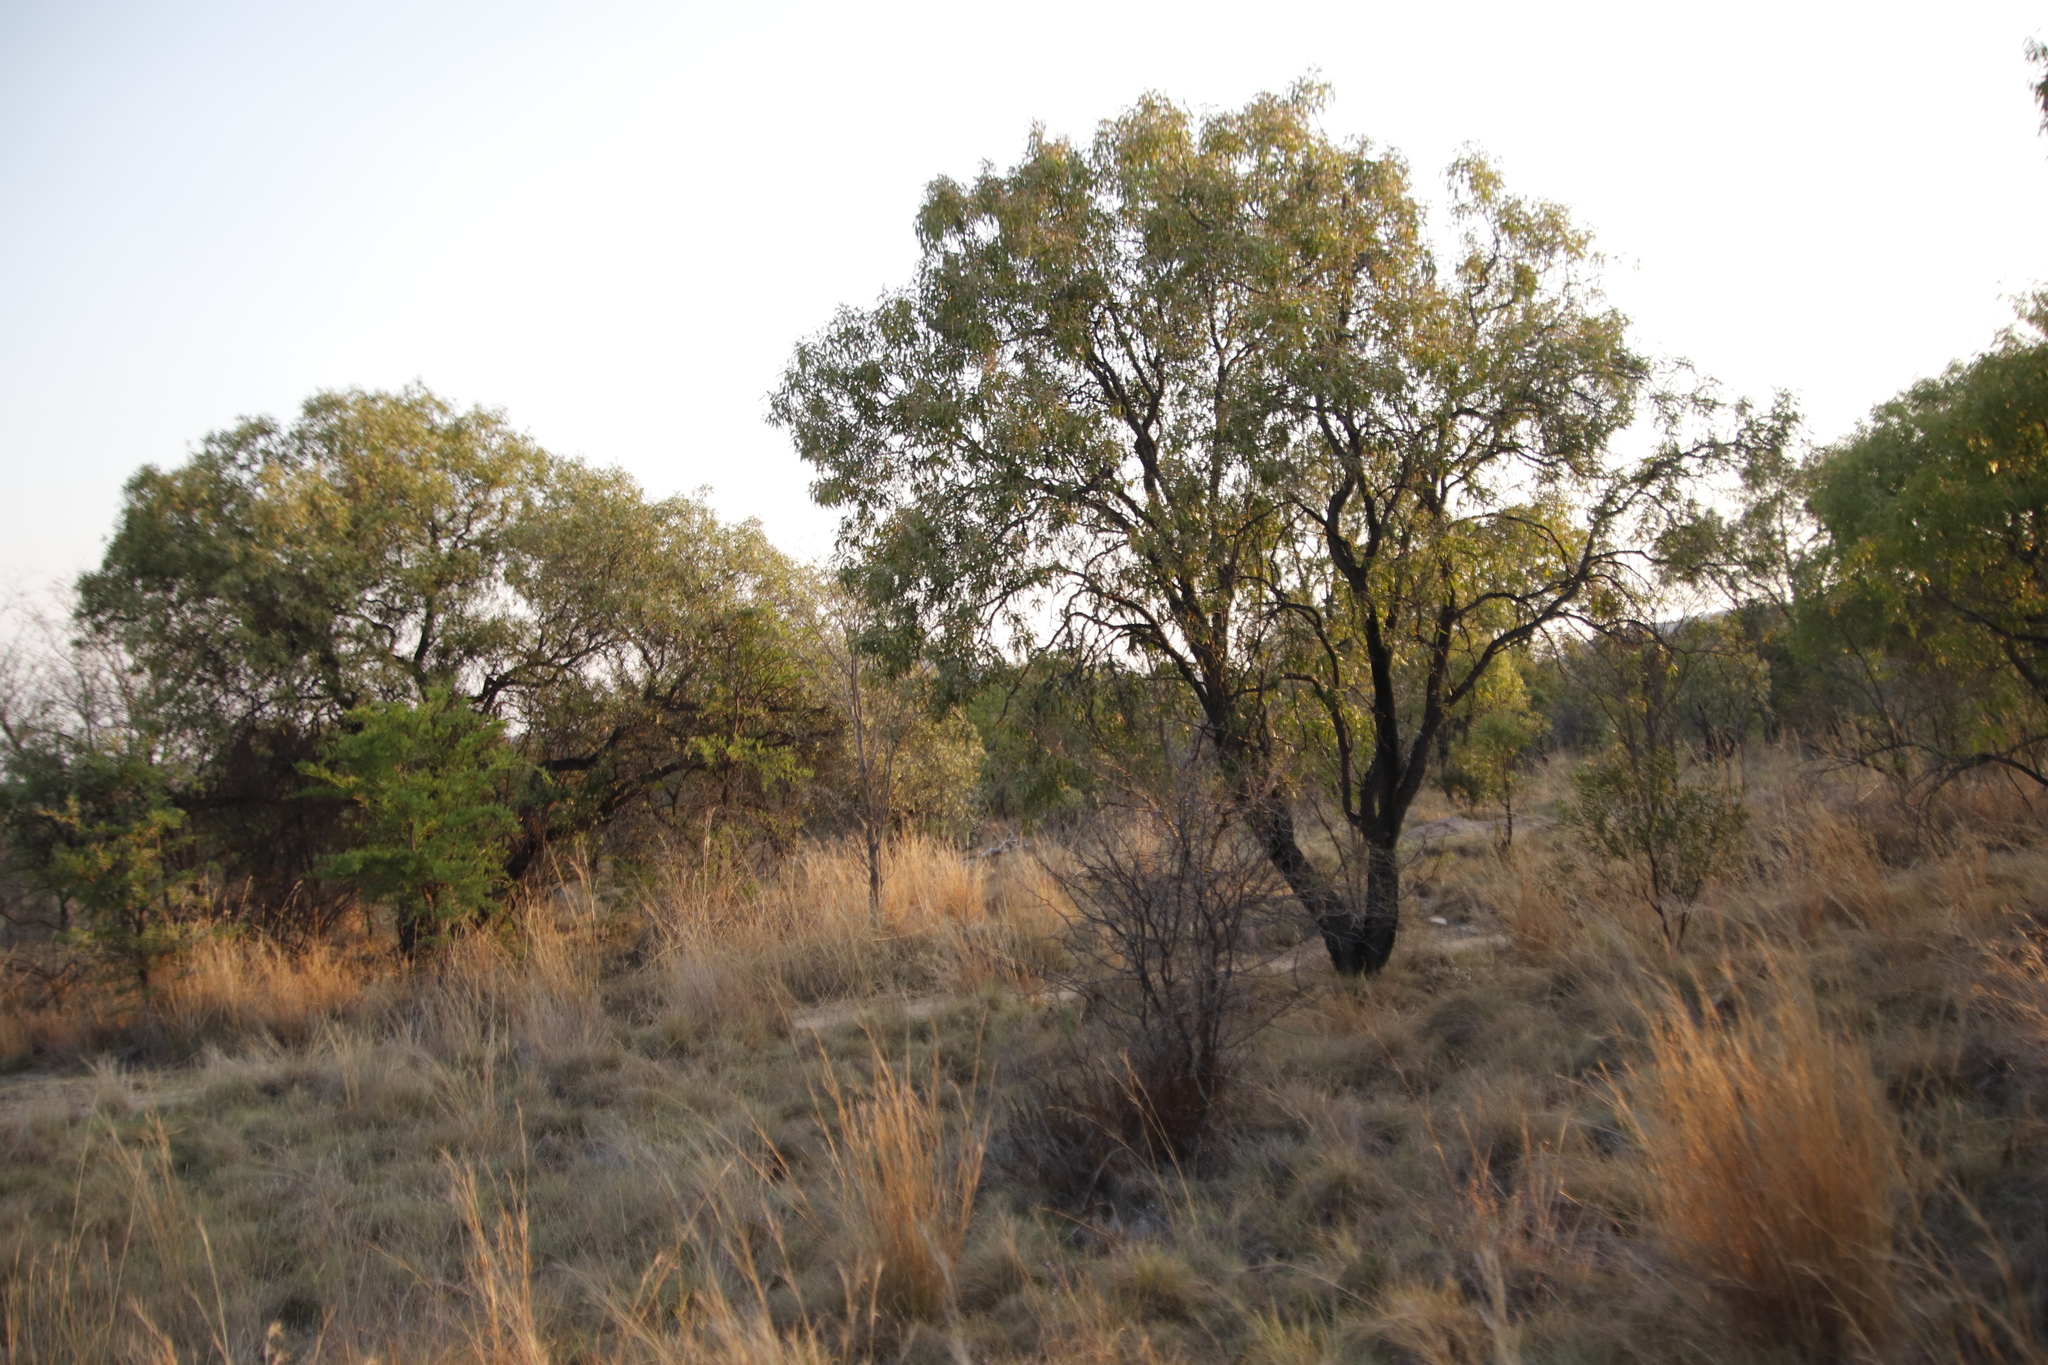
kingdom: Plantae
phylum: Tracheophyta
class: Magnoliopsida
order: Proteales
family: Proteaceae
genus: Faurea
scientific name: Faurea saligna
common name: African bean
